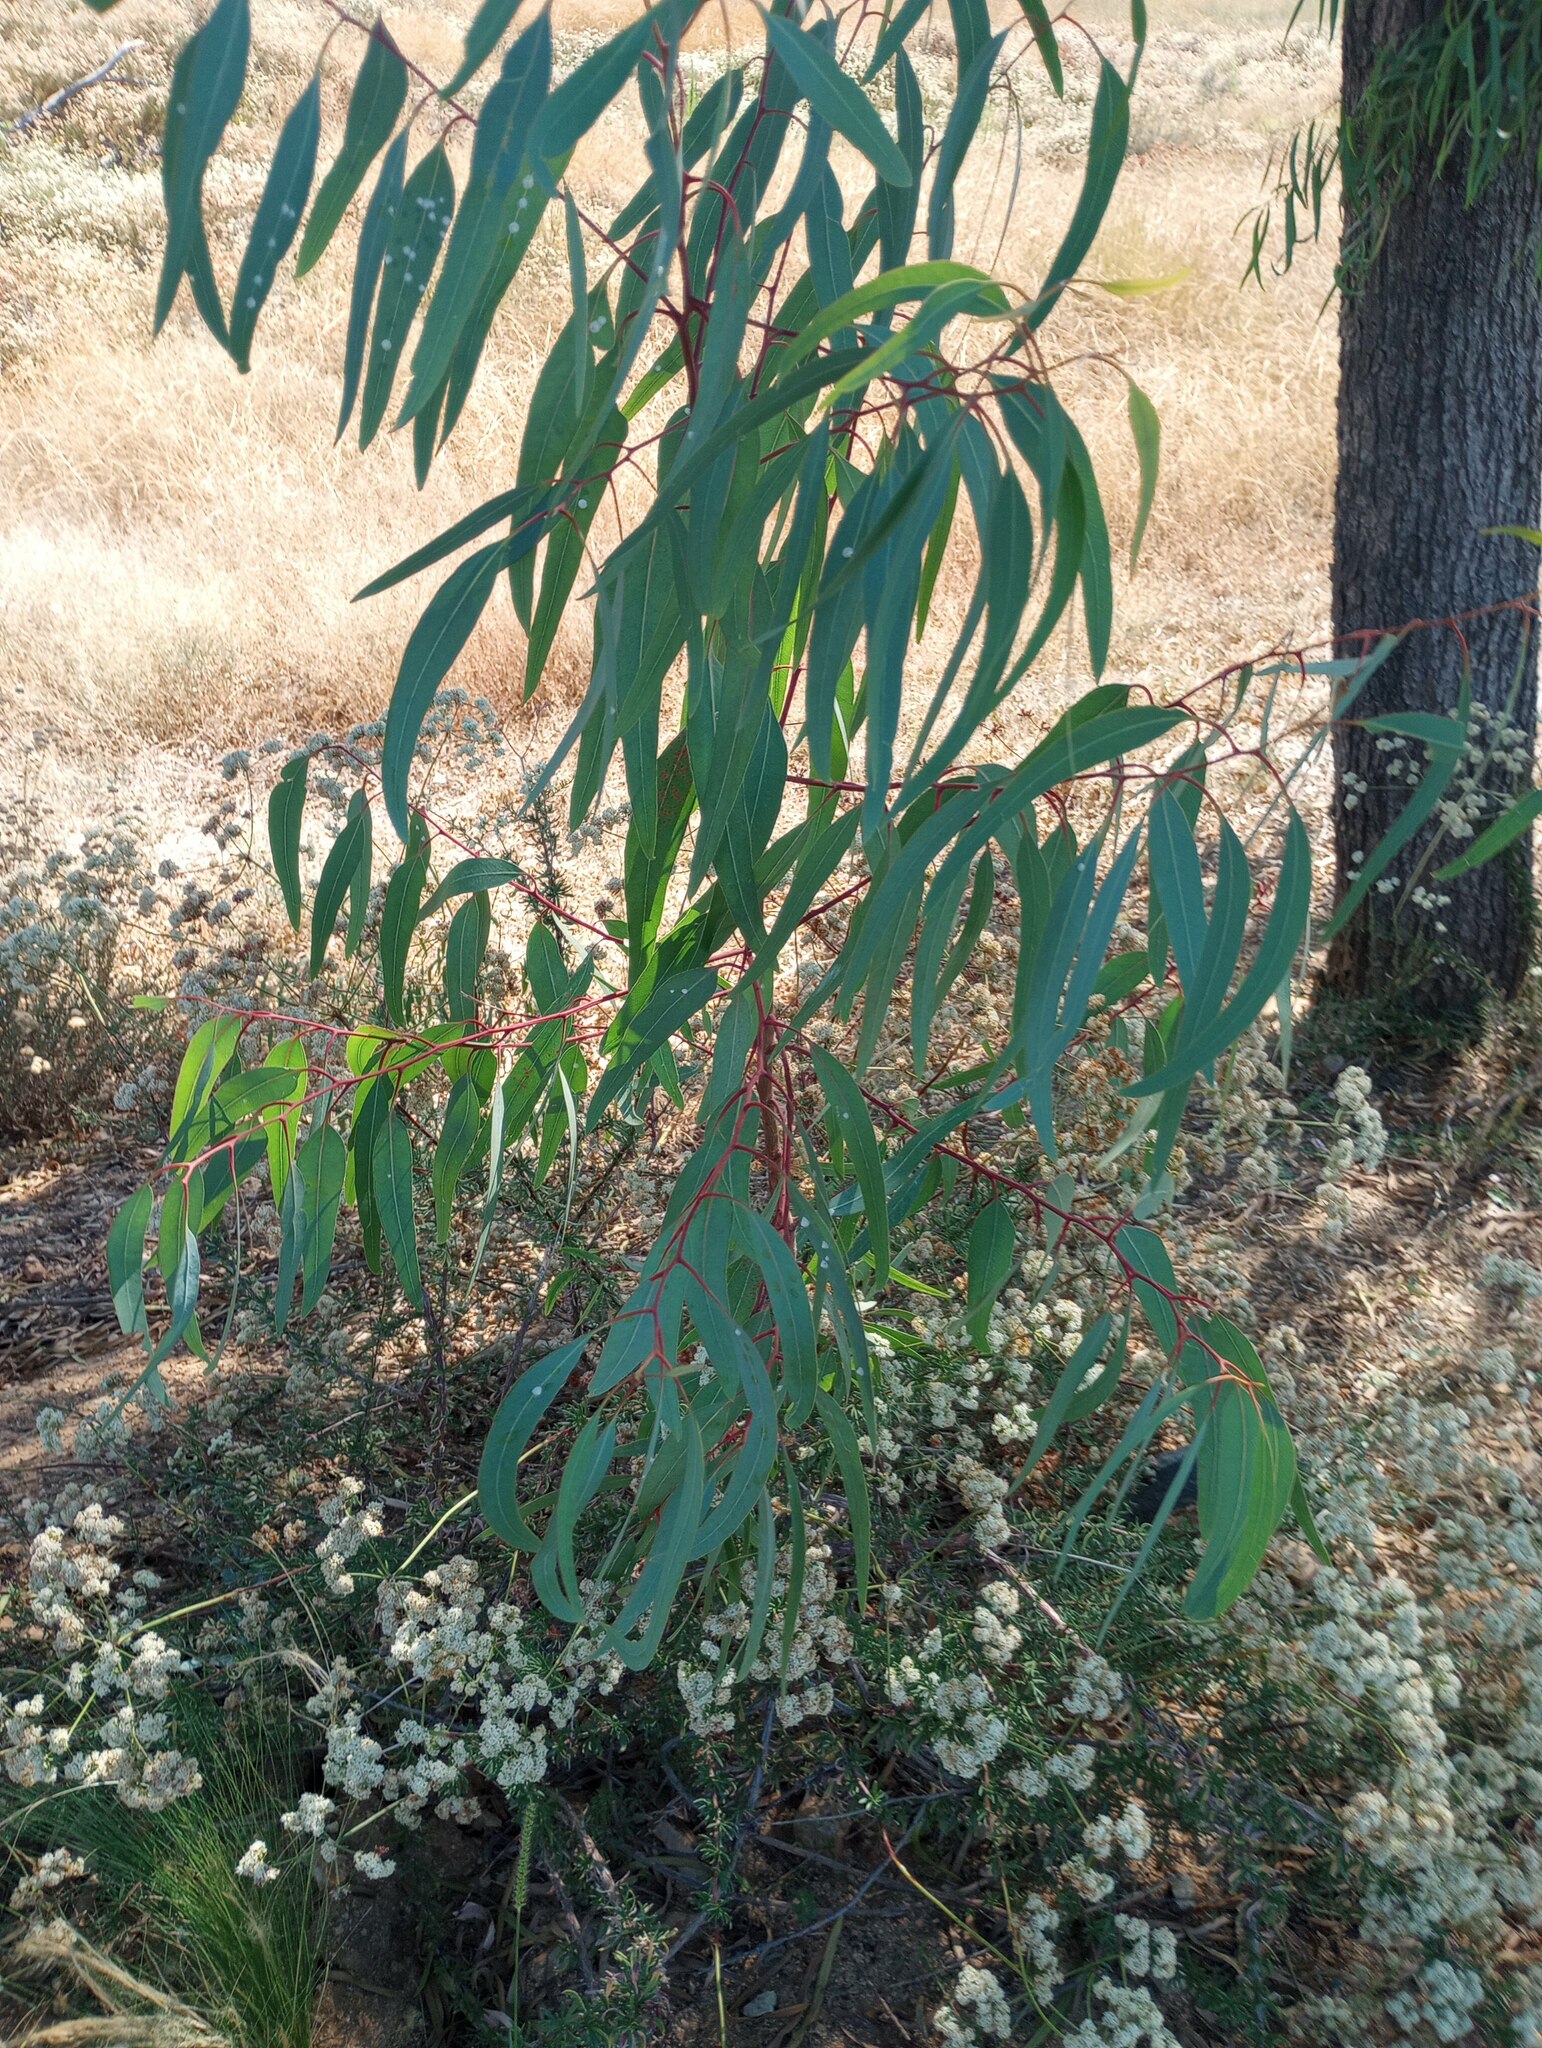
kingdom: Animalia
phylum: Arthropoda
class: Insecta
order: Hemiptera
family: Aphalaridae
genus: Glycaspis
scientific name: Glycaspis brimblecombei
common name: Red gum lerp psyllid
